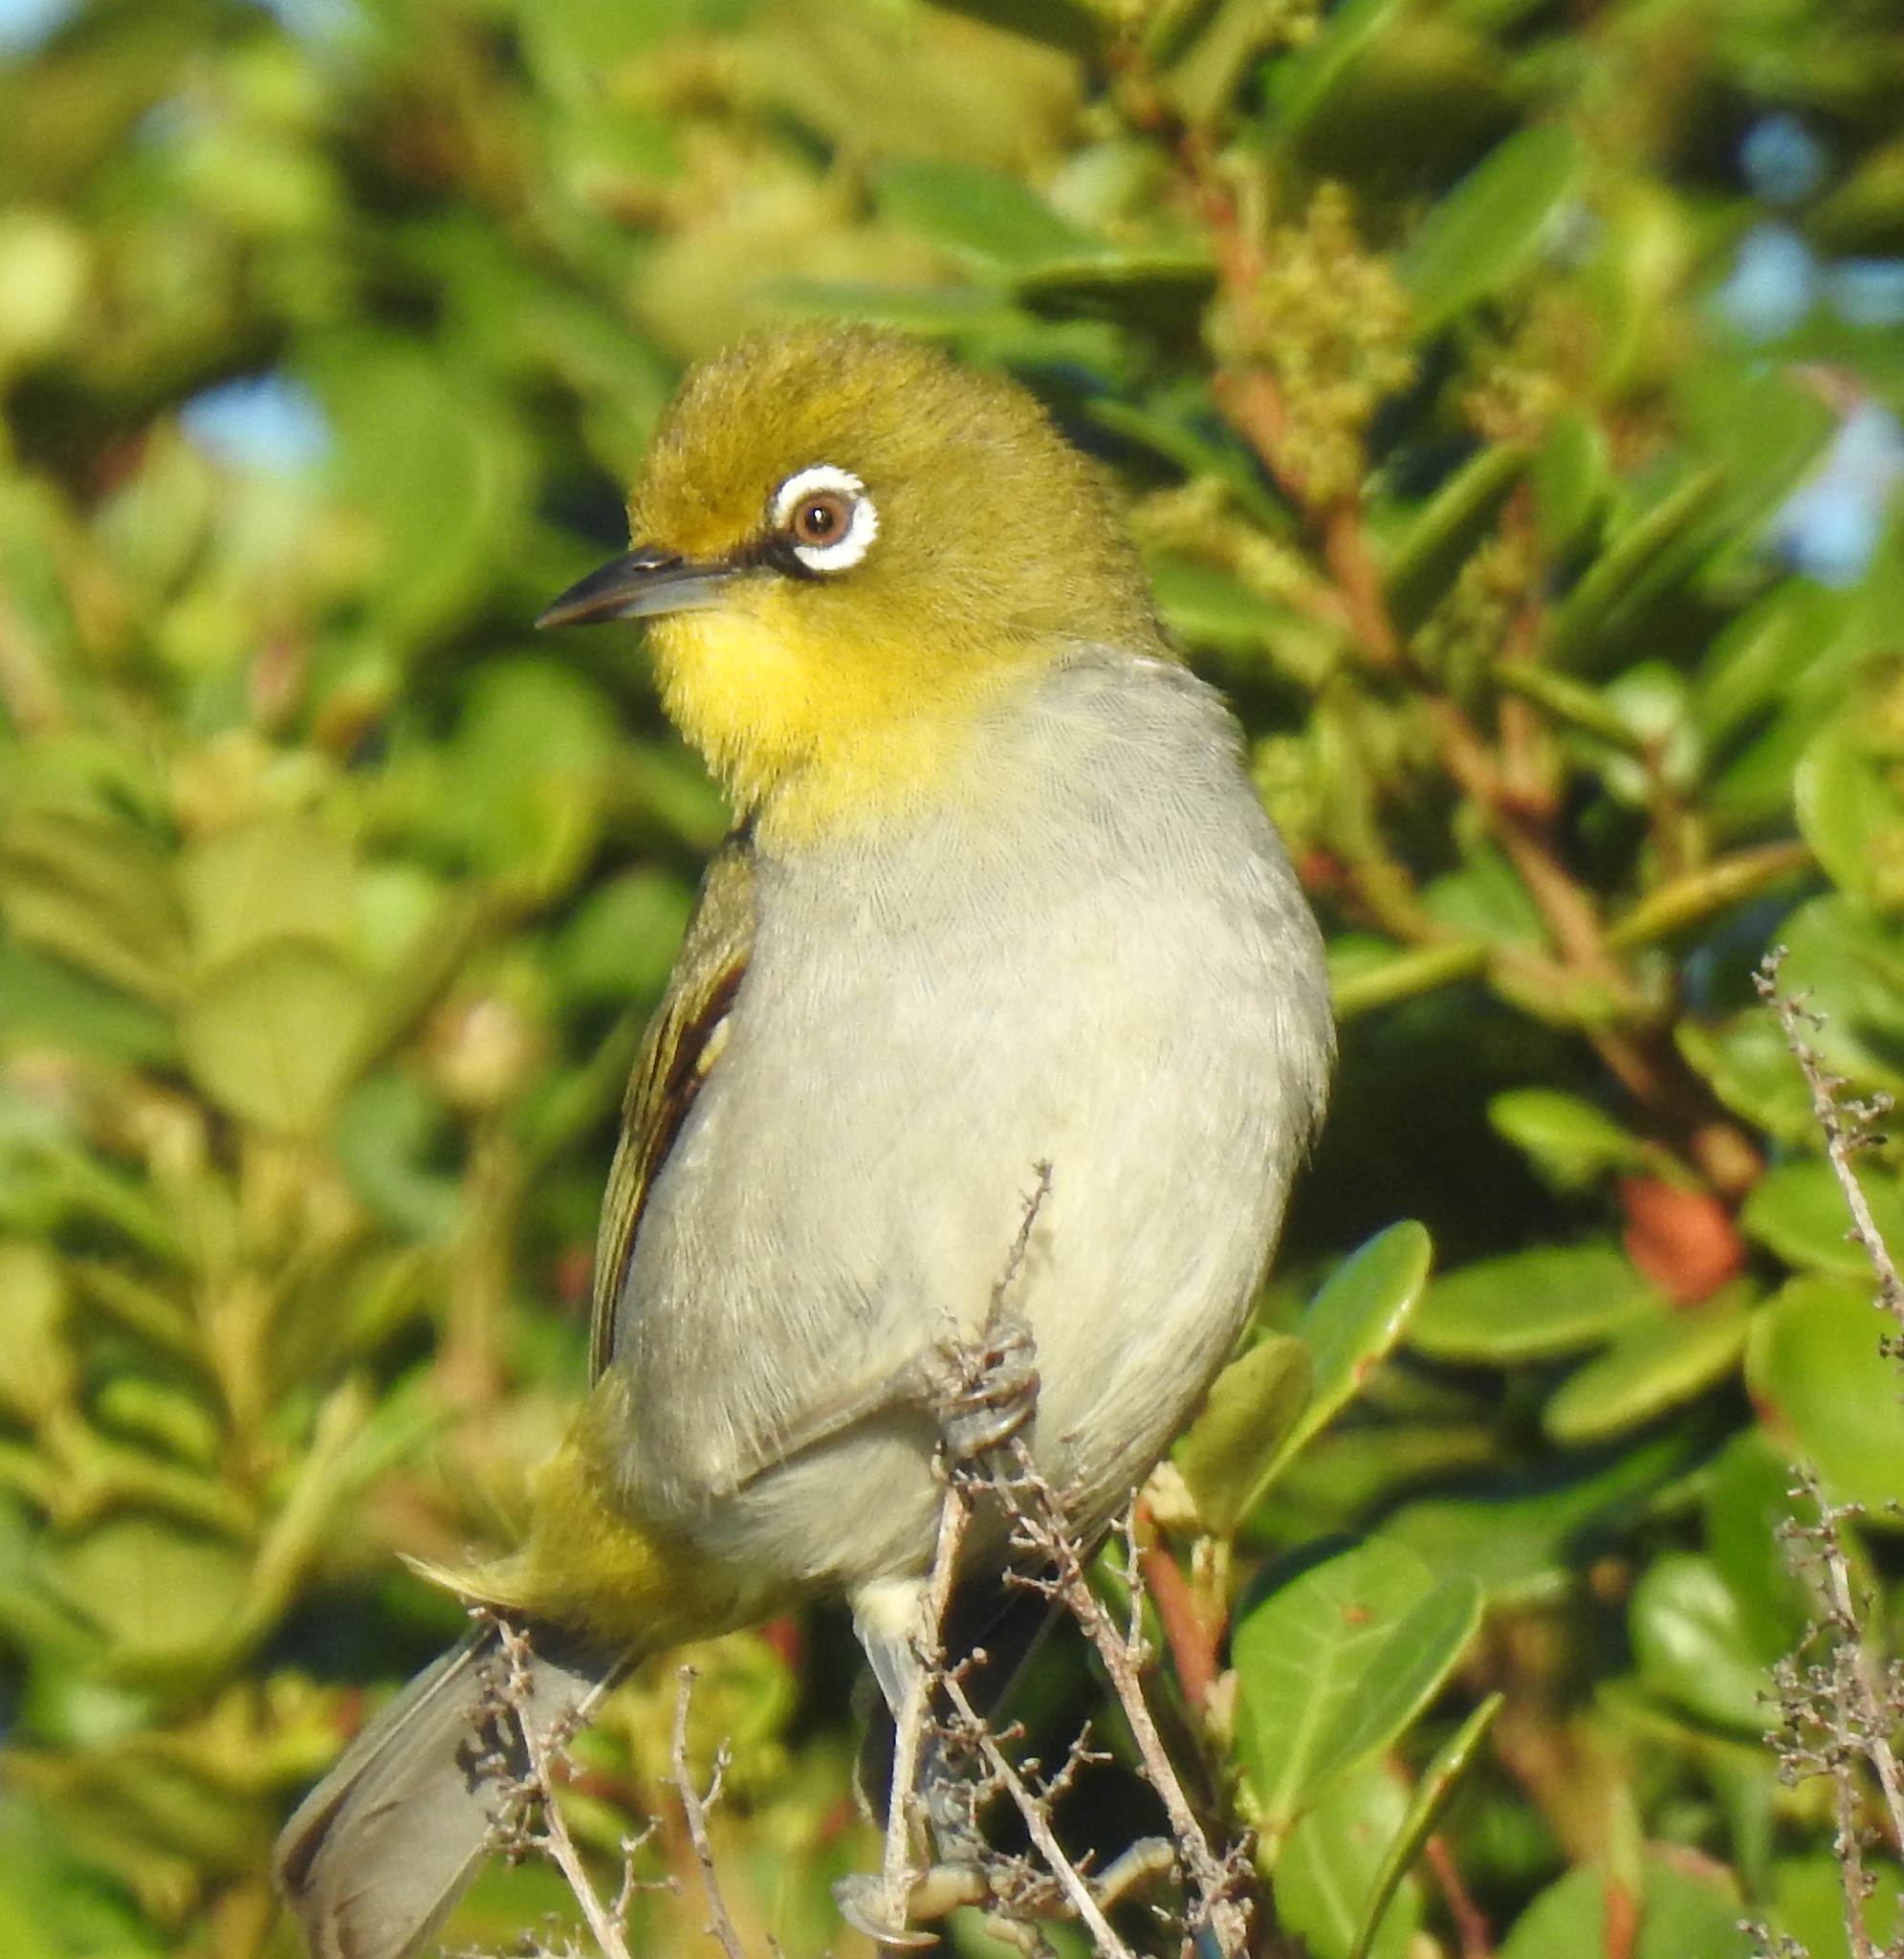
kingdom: Animalia
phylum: Chordata
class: Aves
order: Passeriformes
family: Zosteropidae
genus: Zosterops
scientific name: Zosterops virens
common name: Cape white-eye
